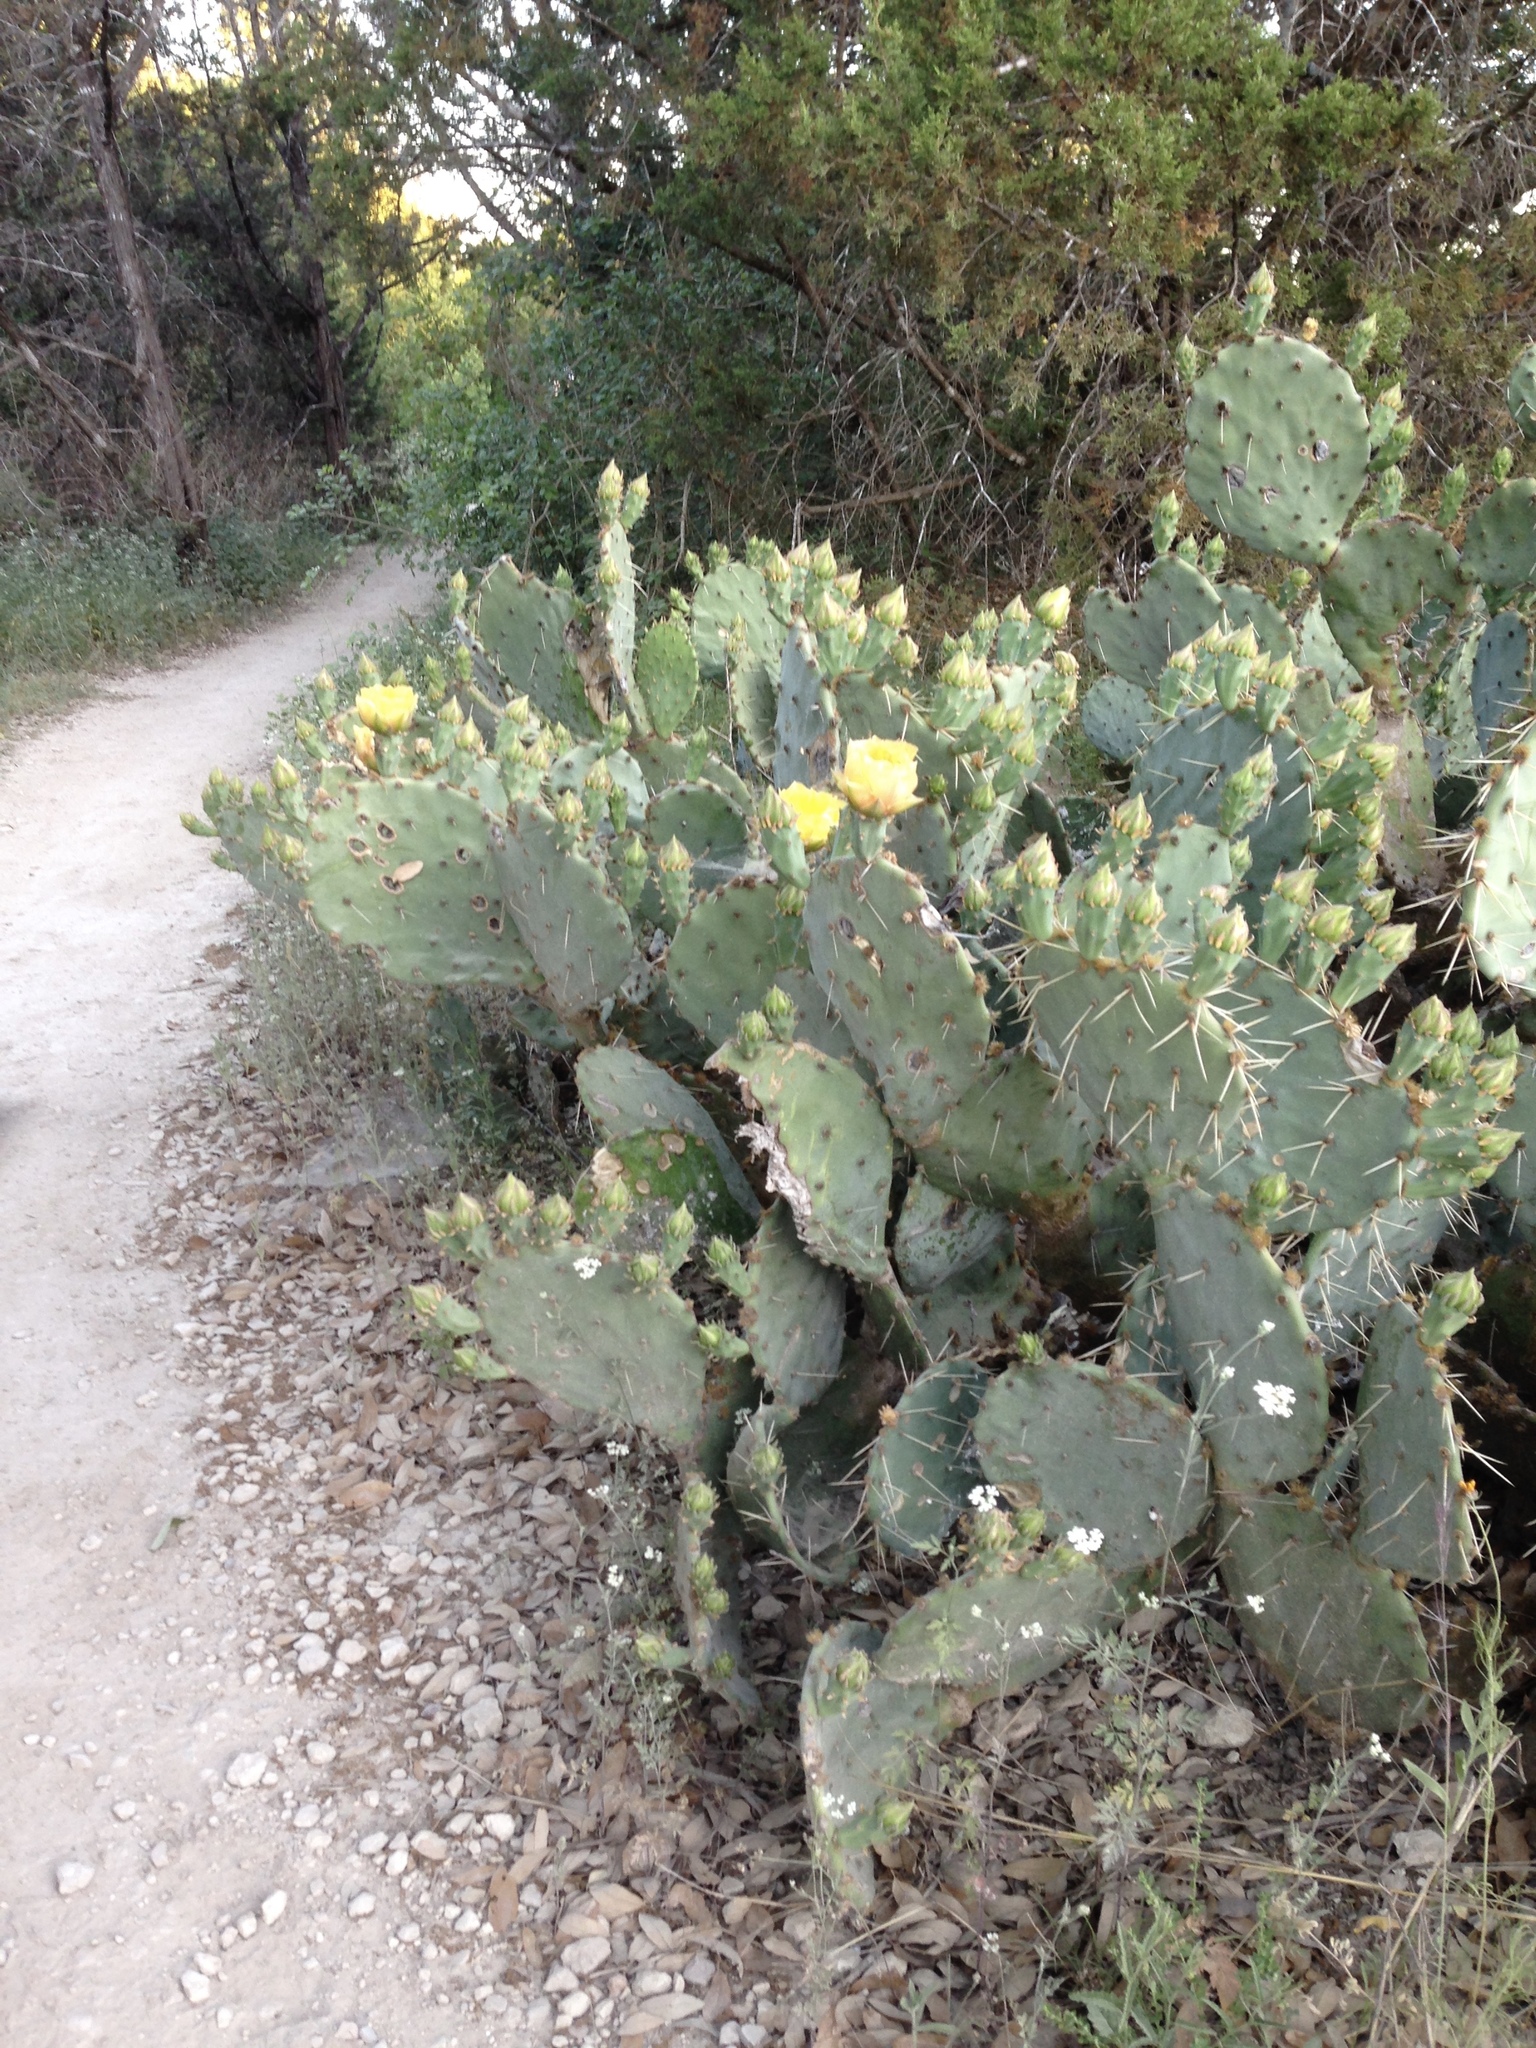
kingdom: Plantae
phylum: Tracheophyta
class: Magnoliopsida
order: Caryophyllales
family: Cactaceae
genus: Opuntia
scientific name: Opuntia engelmannii
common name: Cactus-apple
